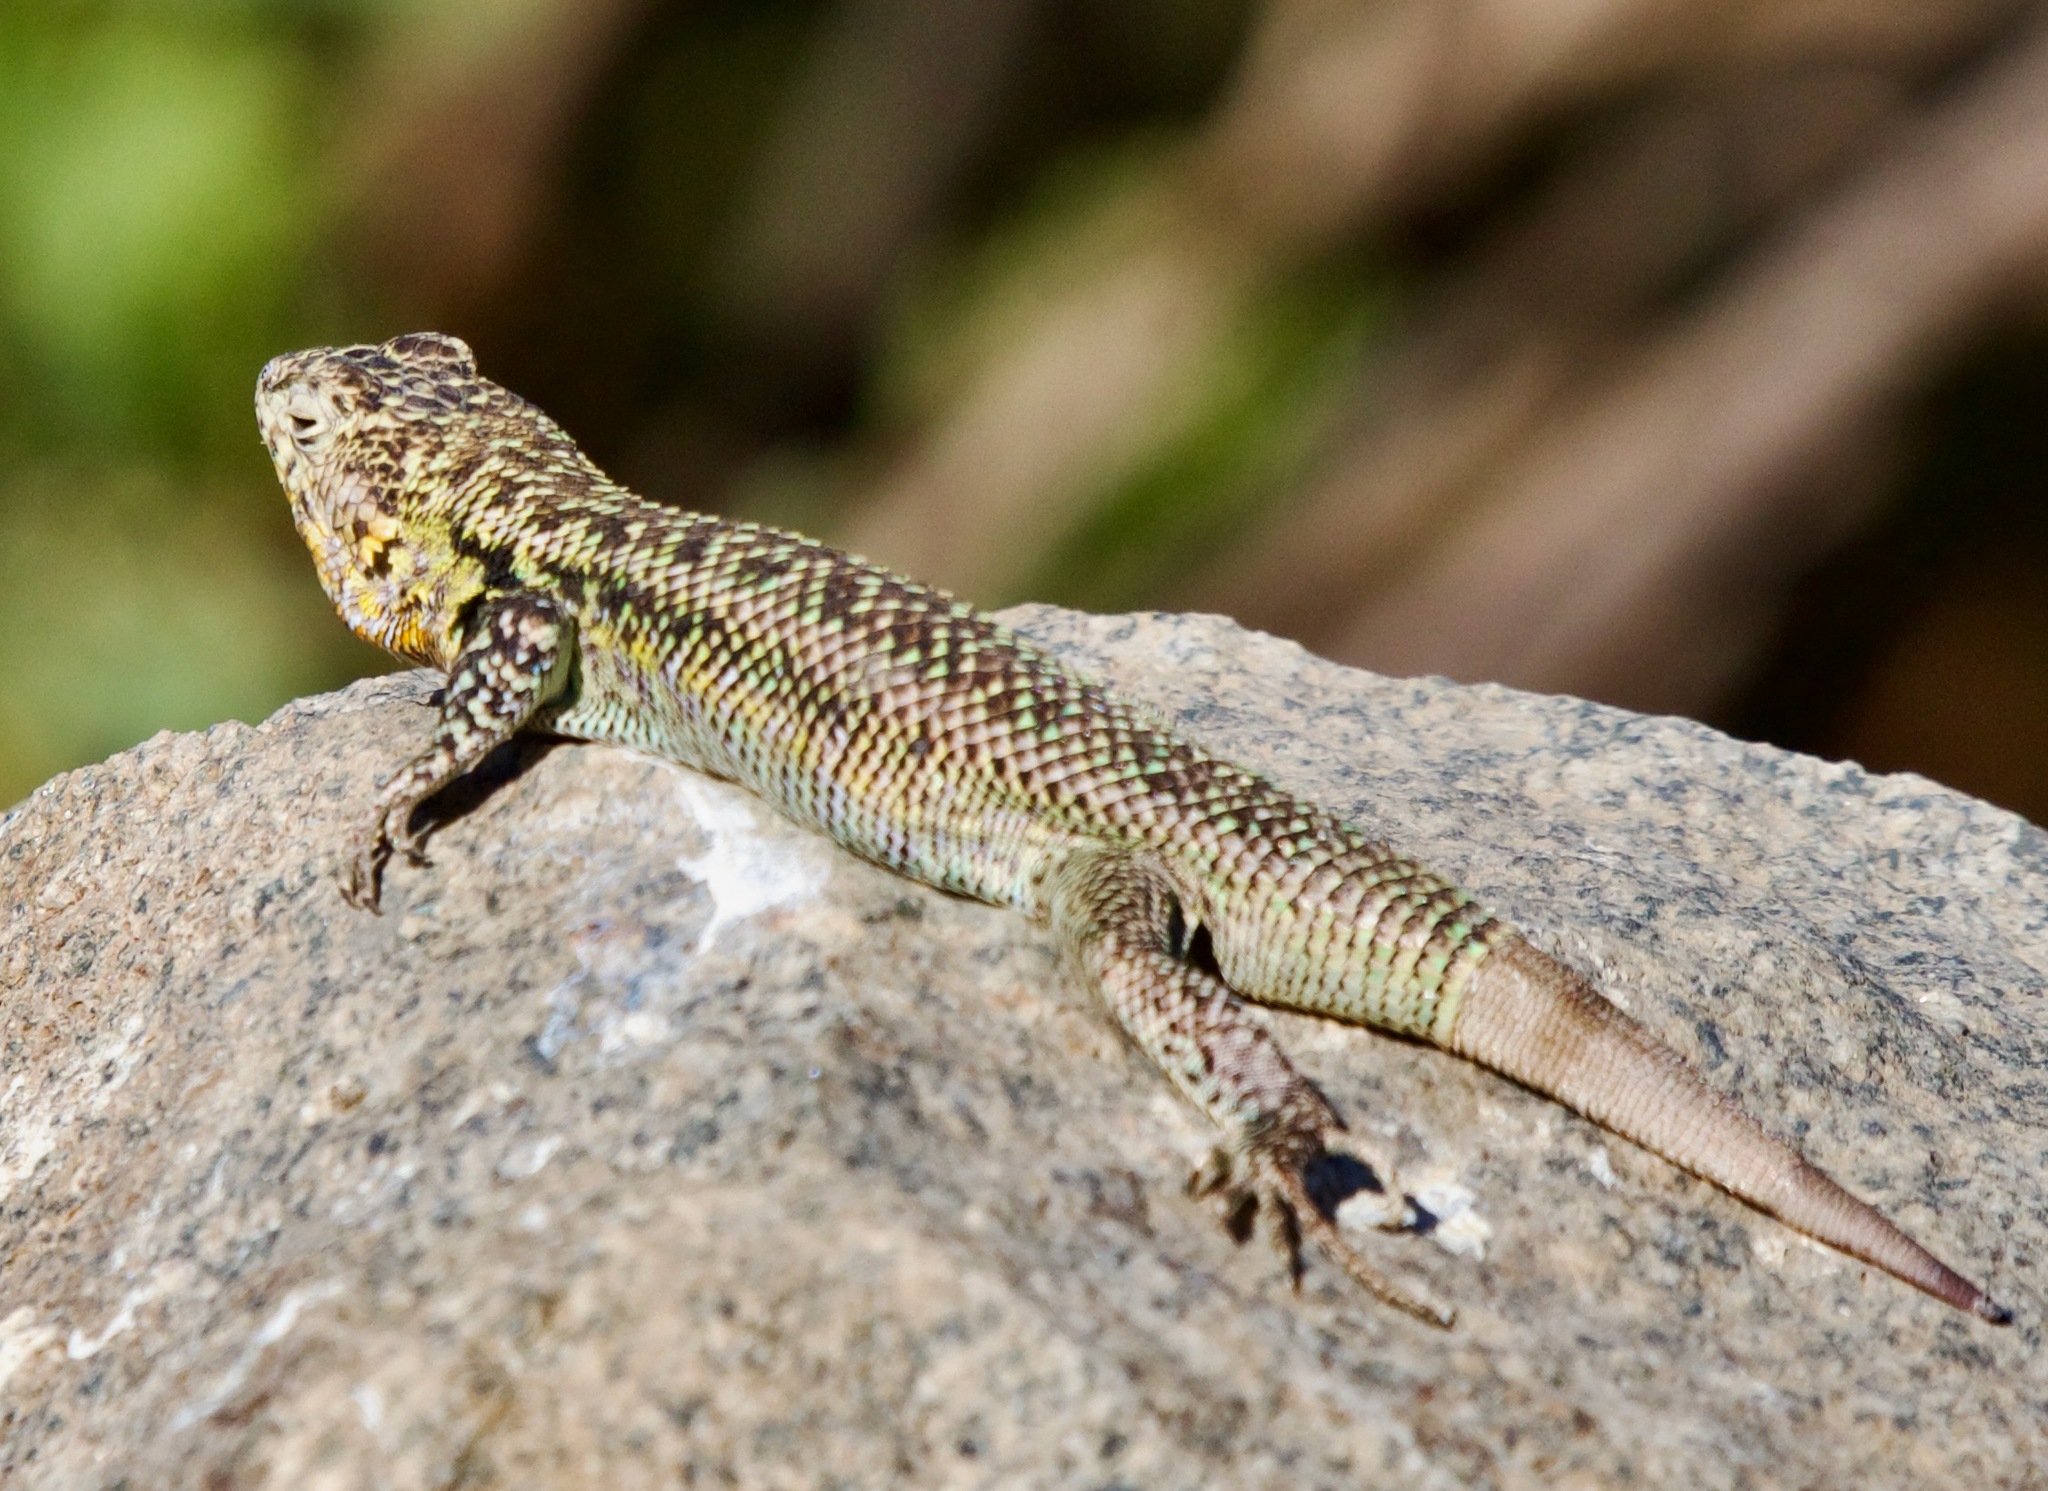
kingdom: Animalia
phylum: Chordata
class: Squamata
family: Liolaemidae
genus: Liolaemus
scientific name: Liolaemus zapallarensis
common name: Zapallaren tree iguana
